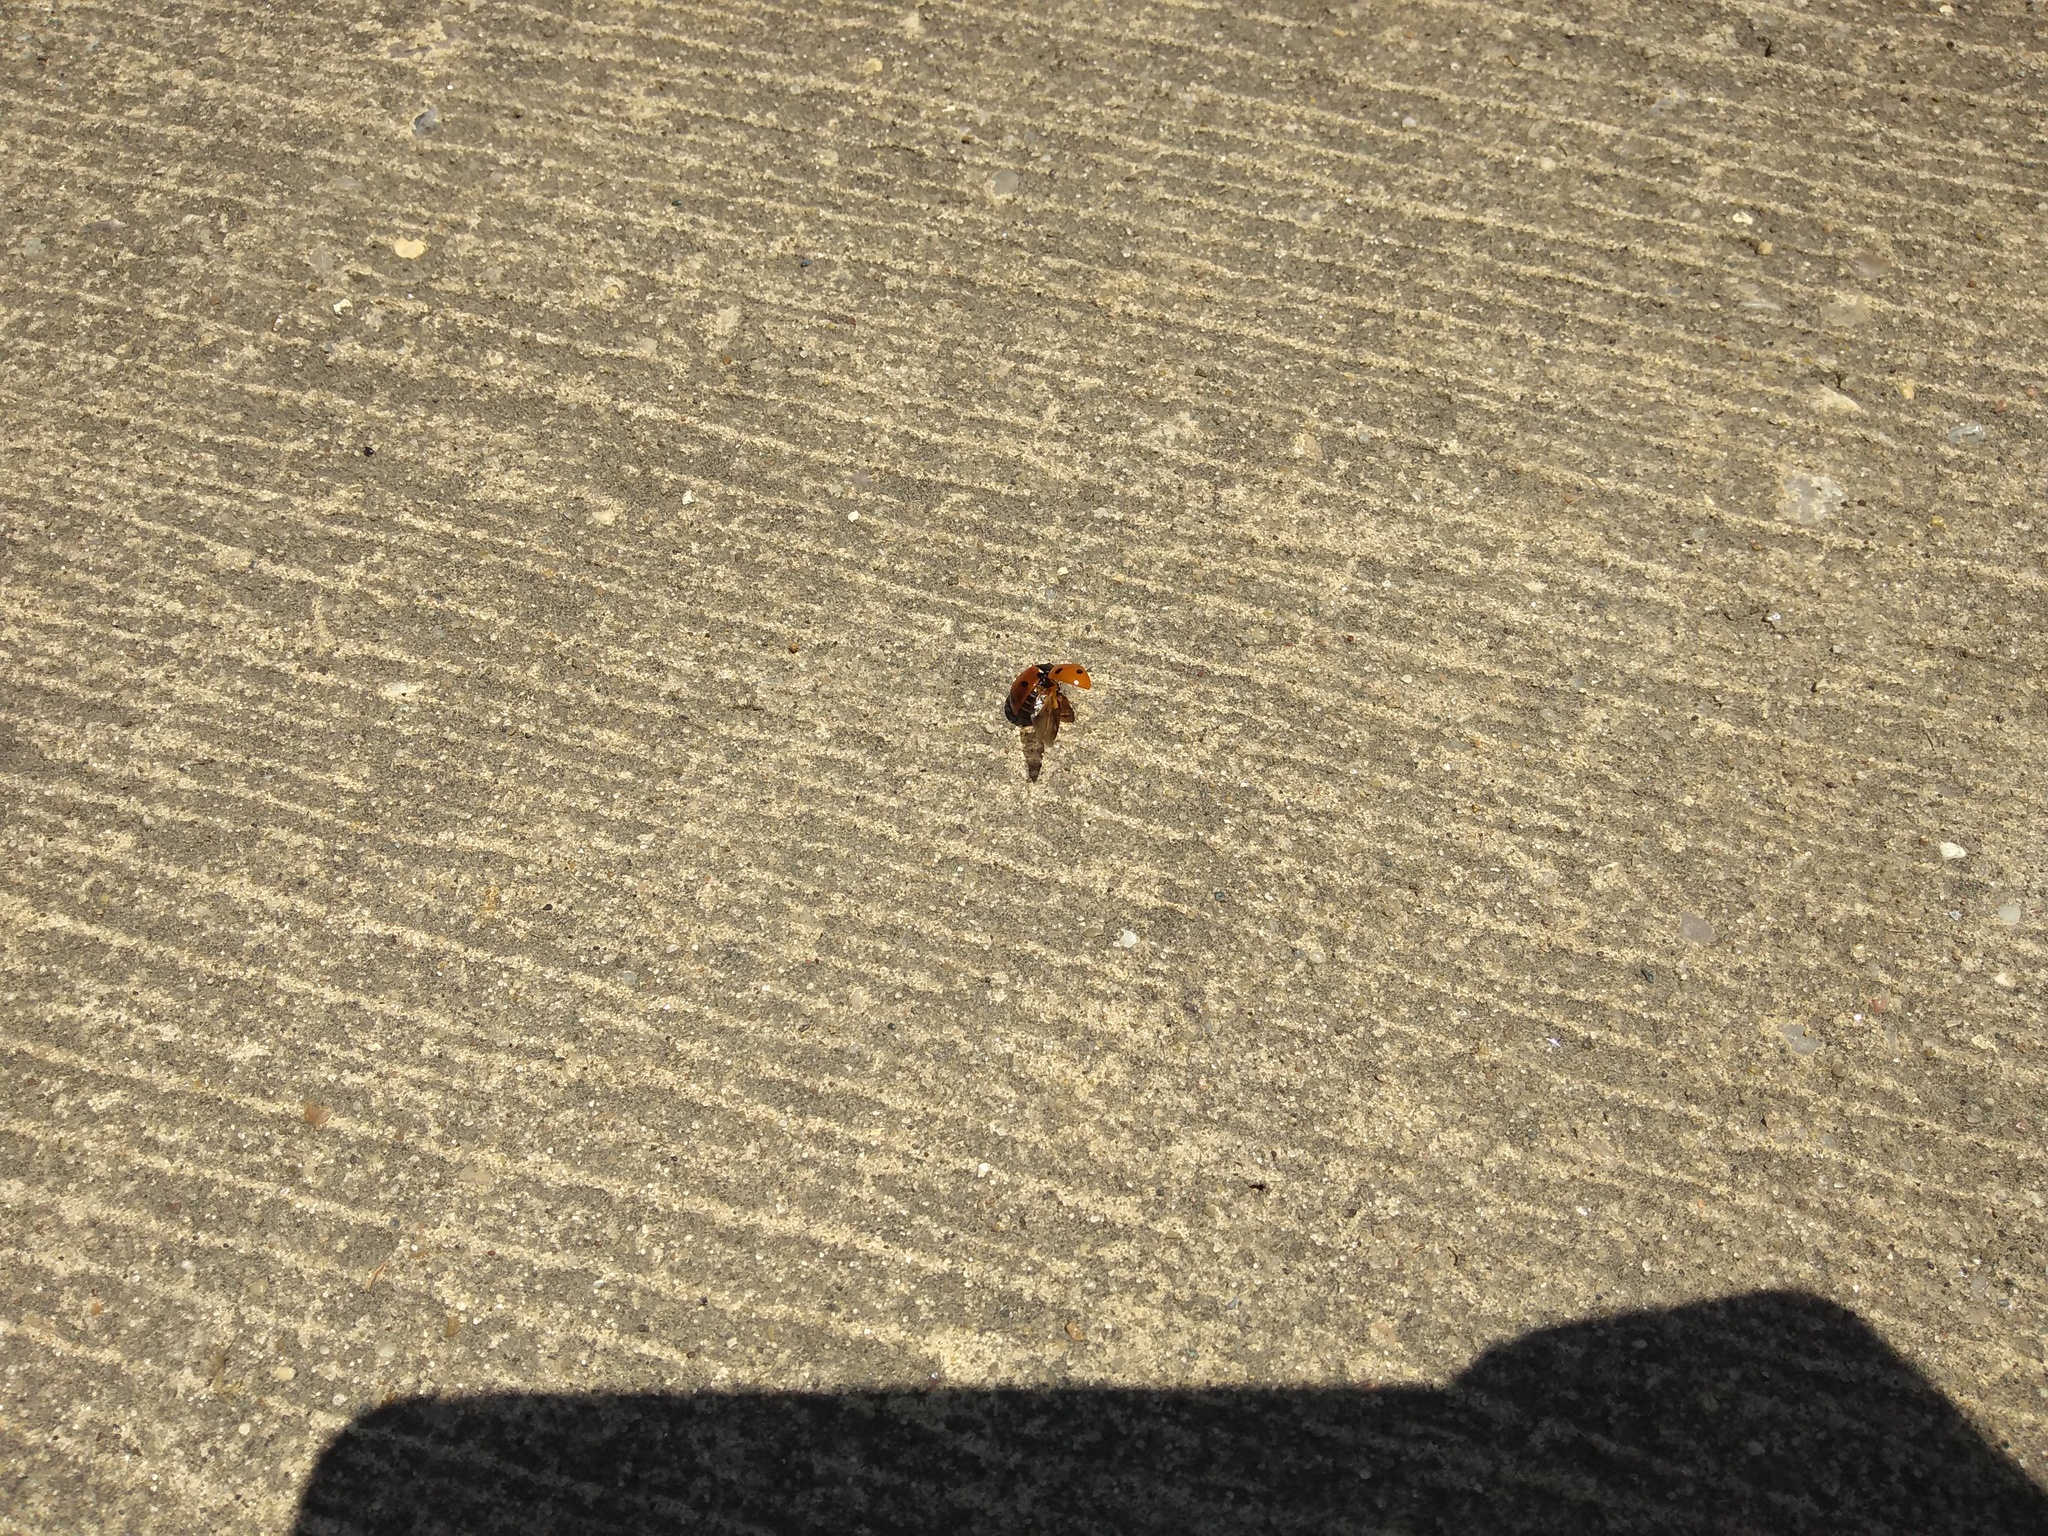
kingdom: Animalia
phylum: Arthropoda
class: Insecta
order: Coleoptera
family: Coccinellidae
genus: Coccinella
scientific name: Coccinella septempunctata
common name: Sevenspotted lady beetle
